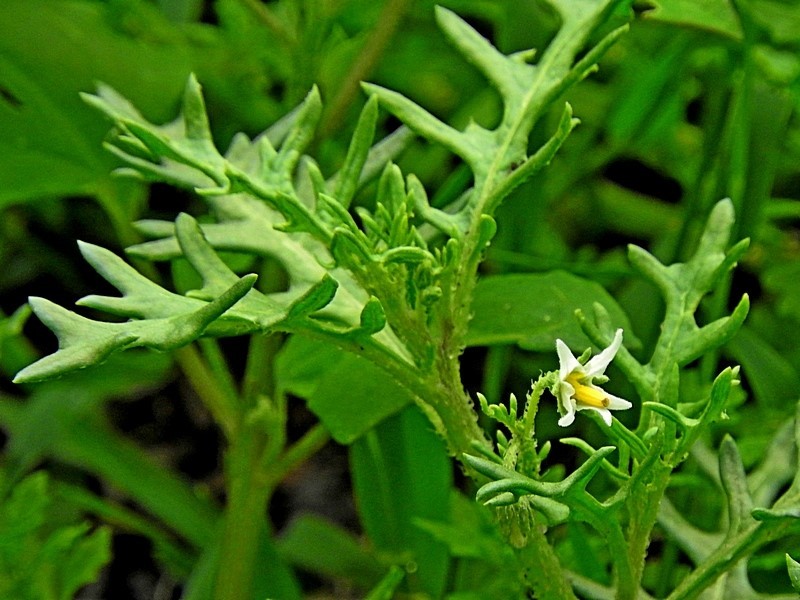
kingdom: Plantae
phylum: Tracheophyta
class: Magnoliopsida
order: Solanales
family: Solanaceae
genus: Solanum
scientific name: Solanum triflorum
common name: Small nightshade
